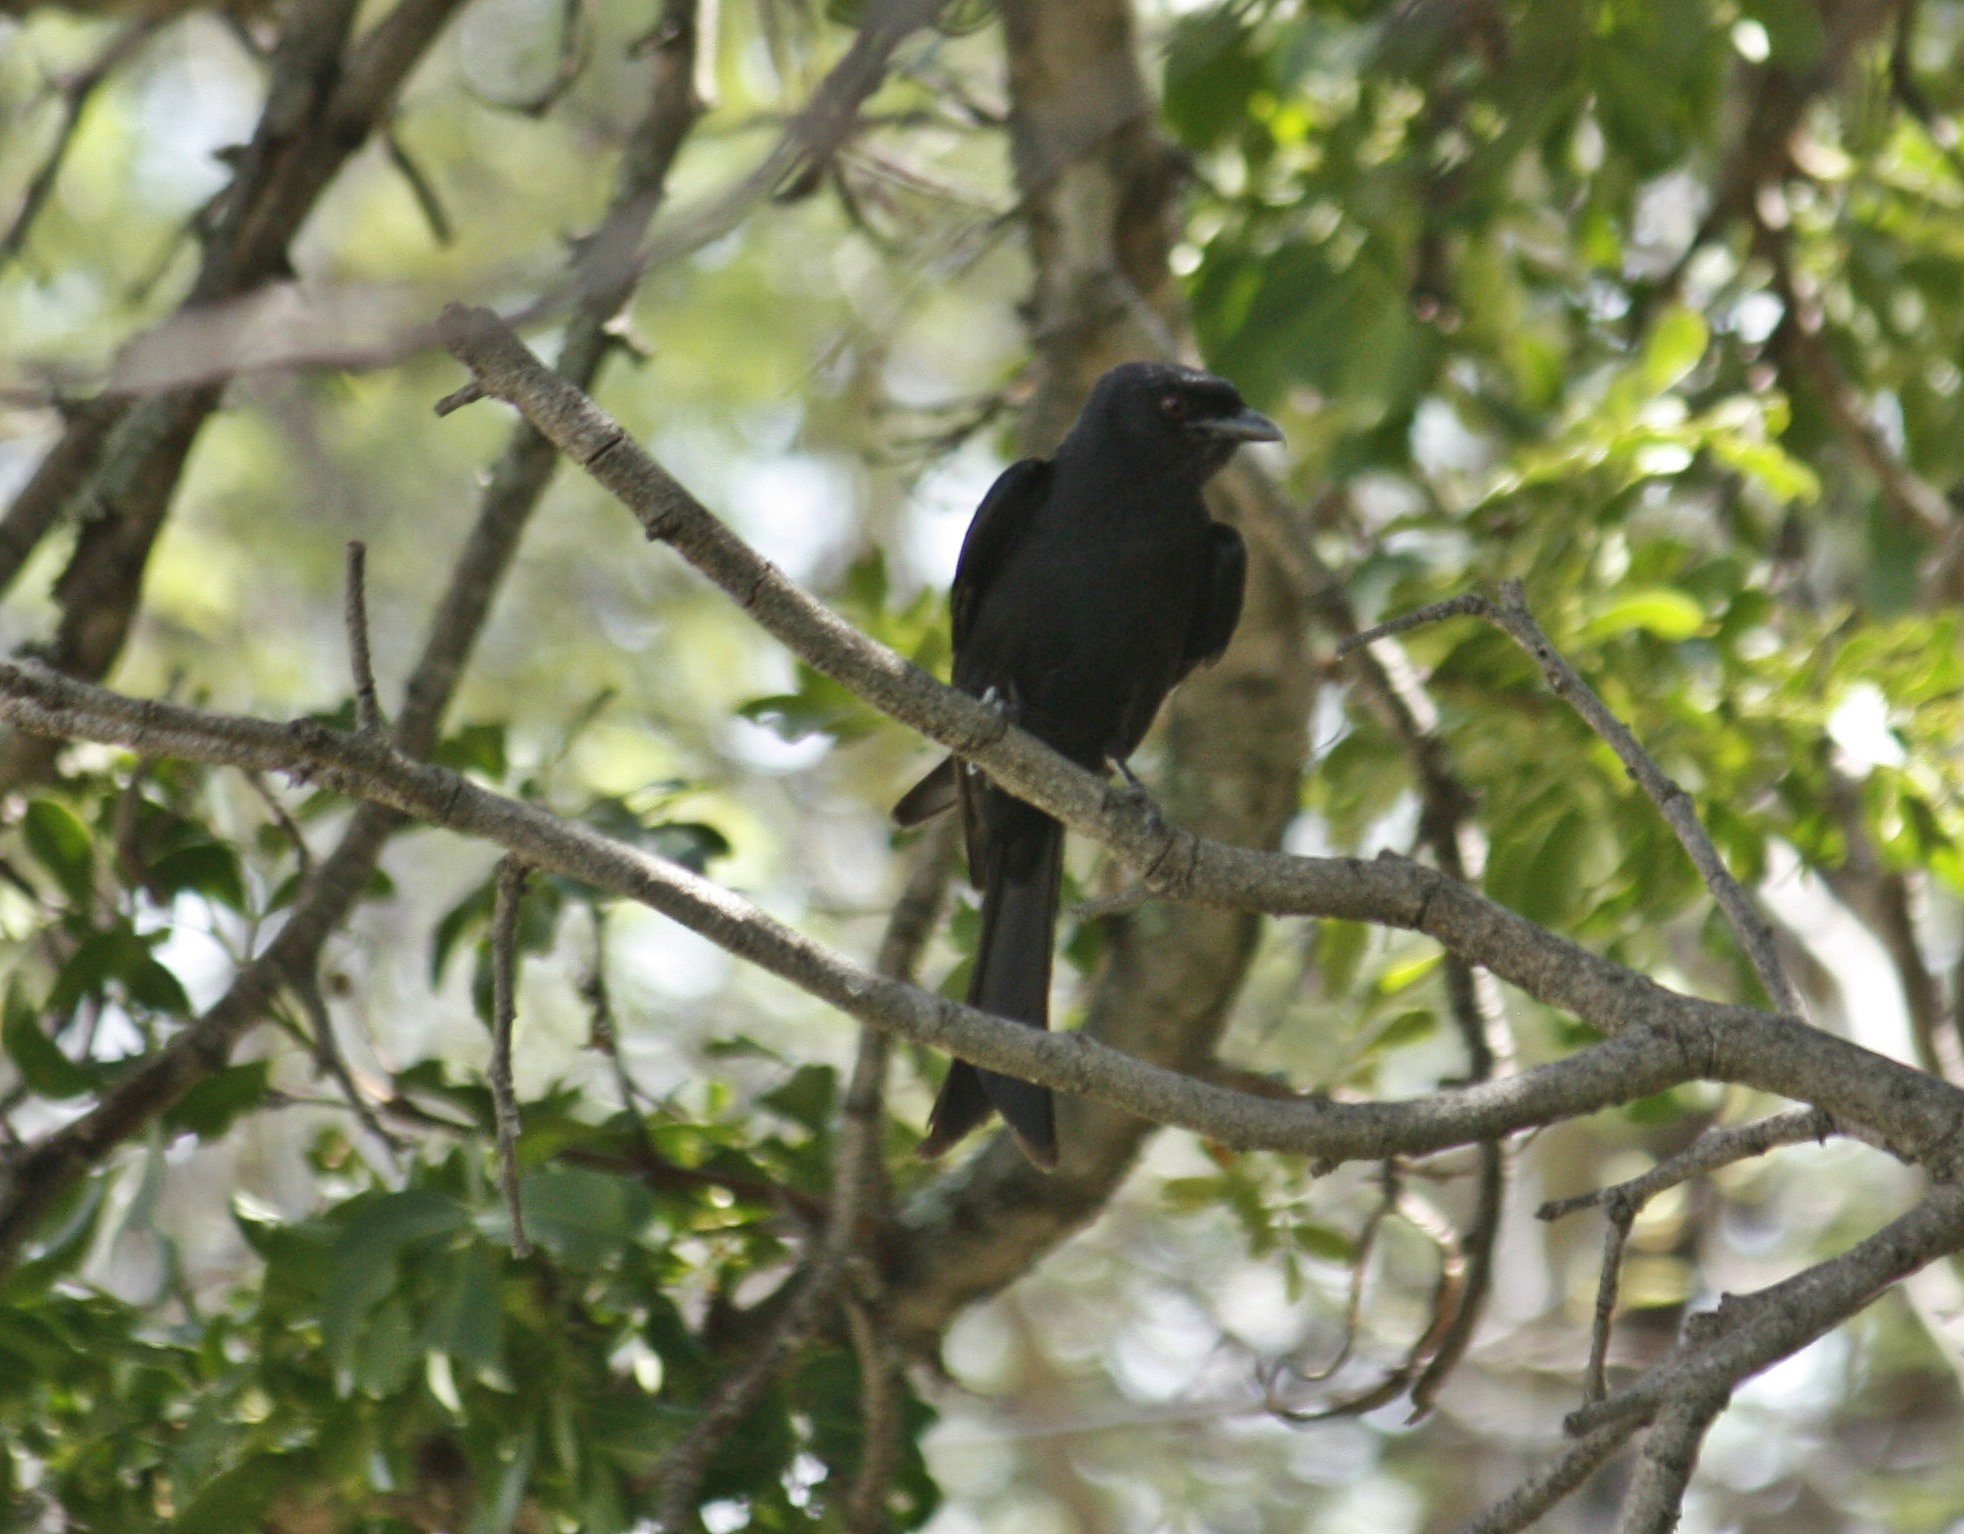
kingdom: Animalia
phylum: Chordata
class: Aves
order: Passeriformes
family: Dicruridae
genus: Dicrurus
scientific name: Dicrurus adsimilis
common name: Fork-tailed drongo
